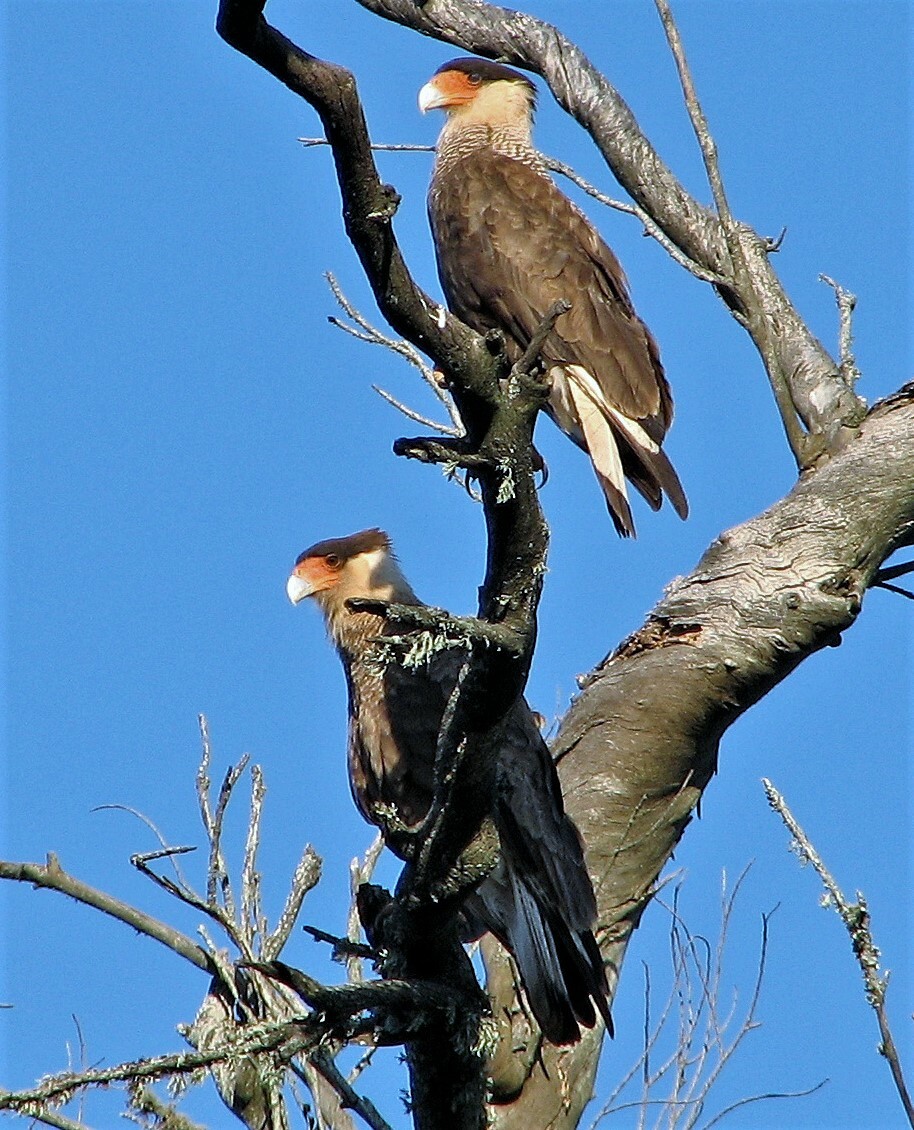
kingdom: Animalia
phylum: Chordata
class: Aves
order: Falconiformes
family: Falconidae
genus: Caracara
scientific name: Caracara plancus
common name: Southern caracara
